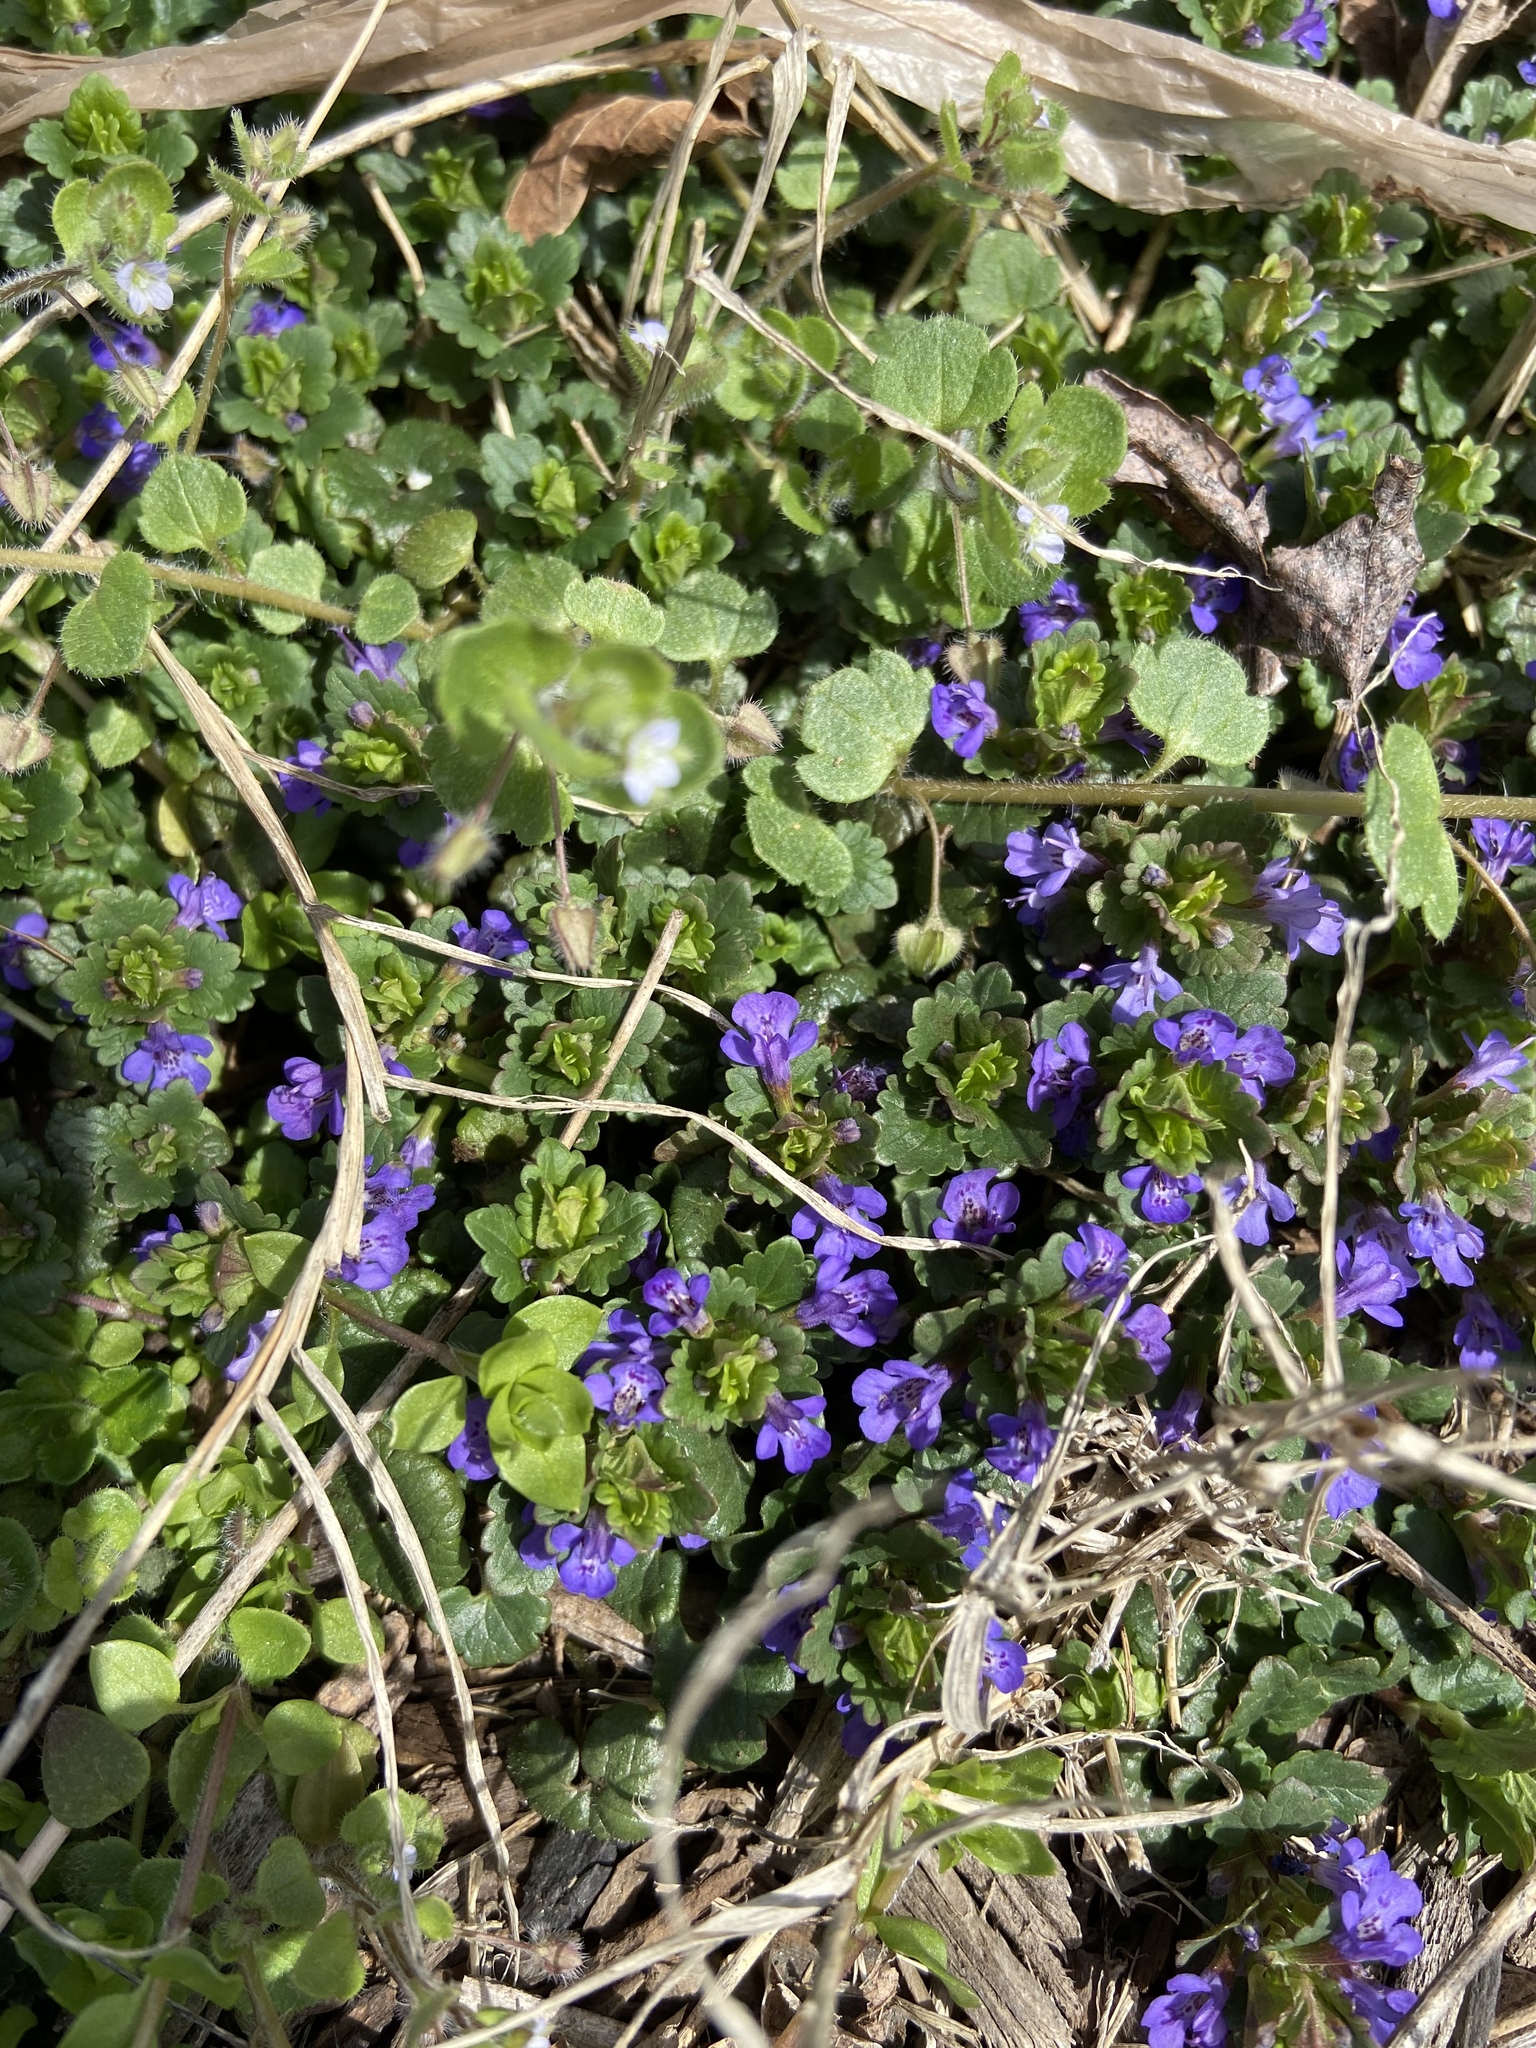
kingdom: Plantae
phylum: Tracheophyta
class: Magnoliopsida
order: Lamiales
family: Lamiaceae
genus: Glechoma
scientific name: Glechoma hederacea
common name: Ground ivy
